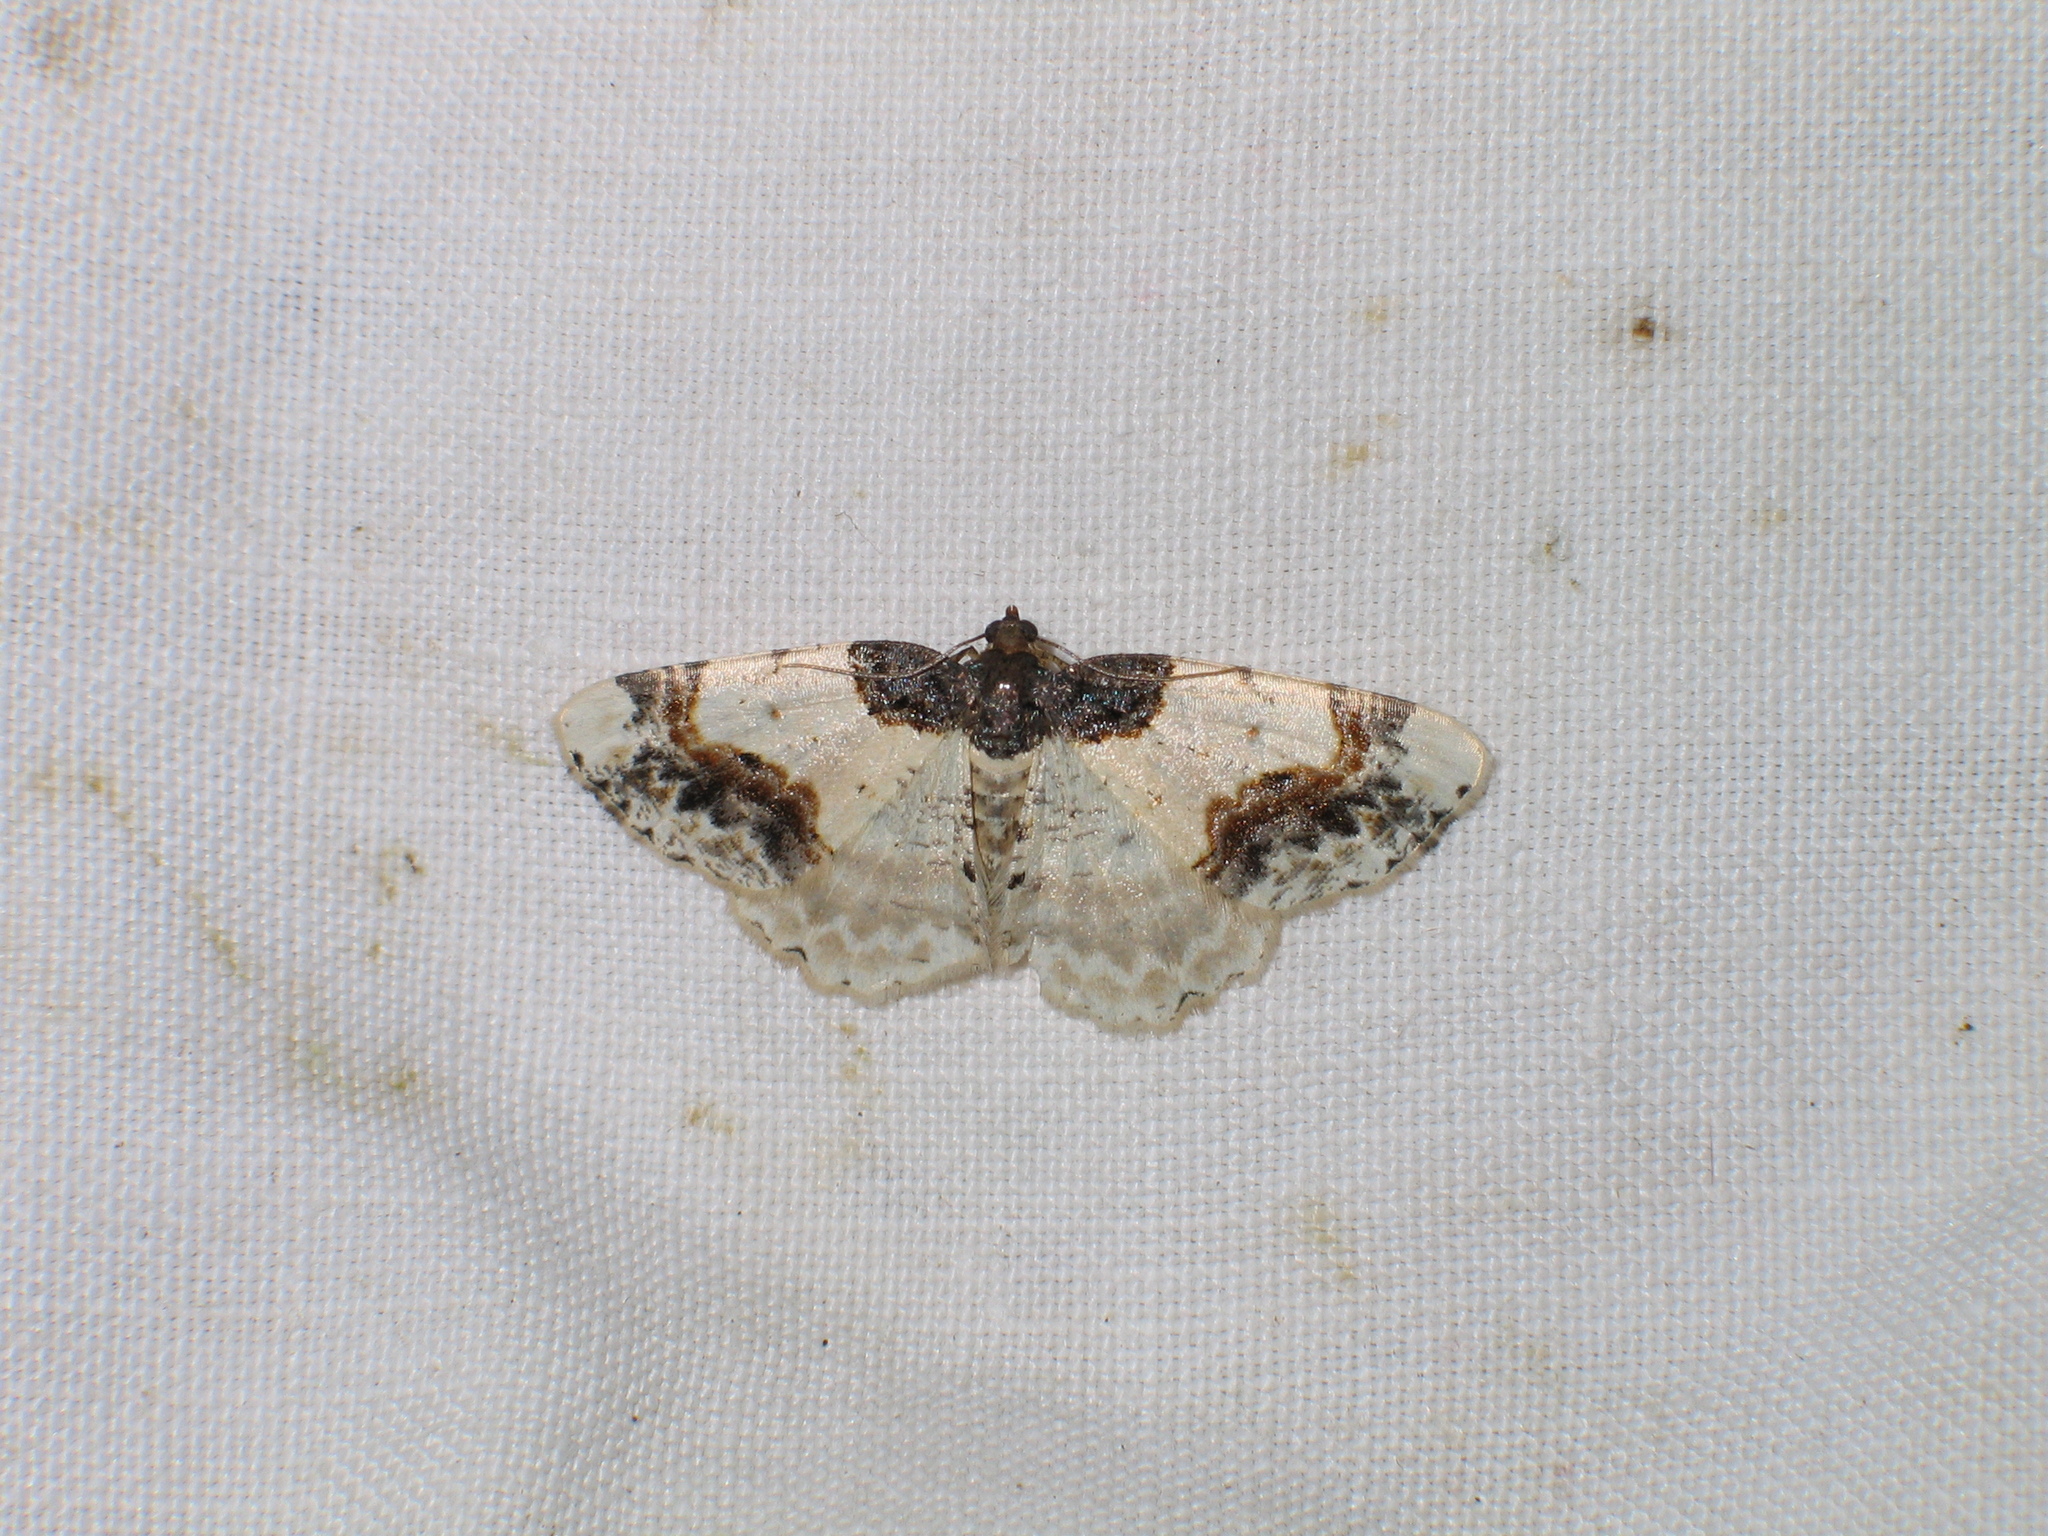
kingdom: Animalia
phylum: Arthropoda
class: Insecta
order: Lepidoptera
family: Geometridae
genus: Ligdia
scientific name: Ligdia adustata
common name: Scorched carpet
